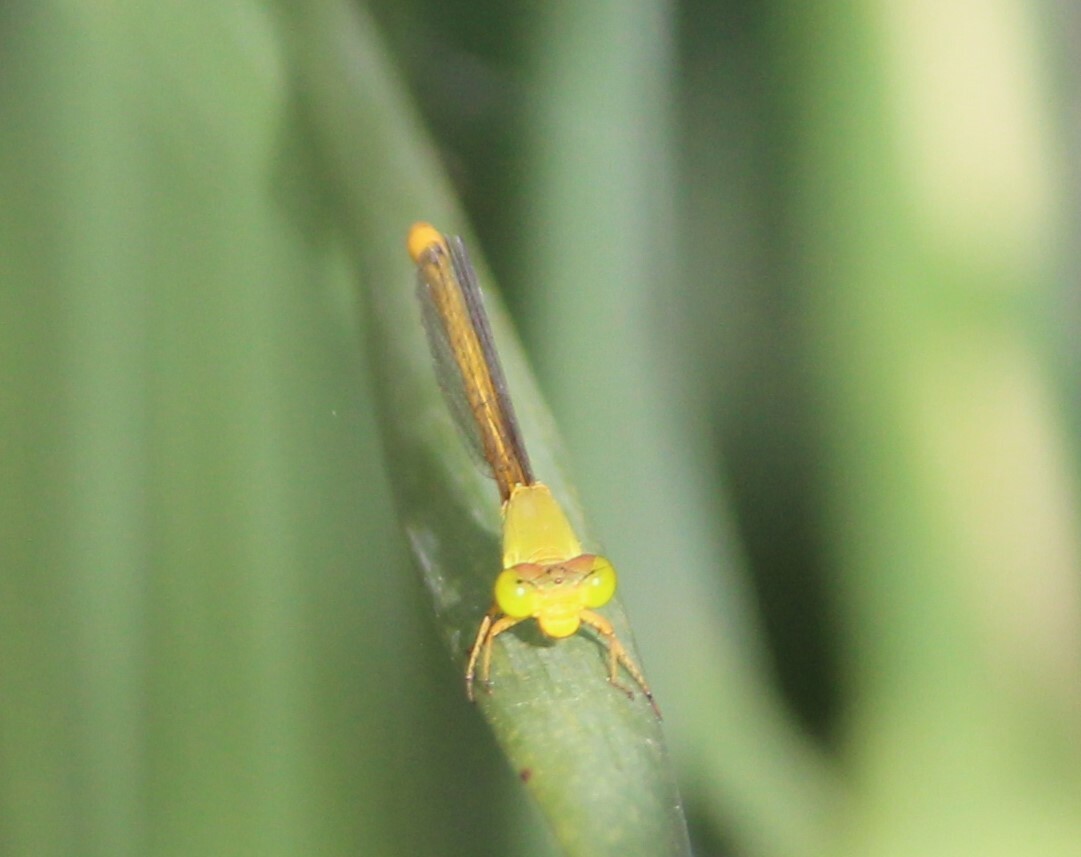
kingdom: Animalia
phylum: Arthropoda
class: Insecta
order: Odonata
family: Coenagrionidae
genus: Ceriagrion
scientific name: Ceriagrion coromandelianum
